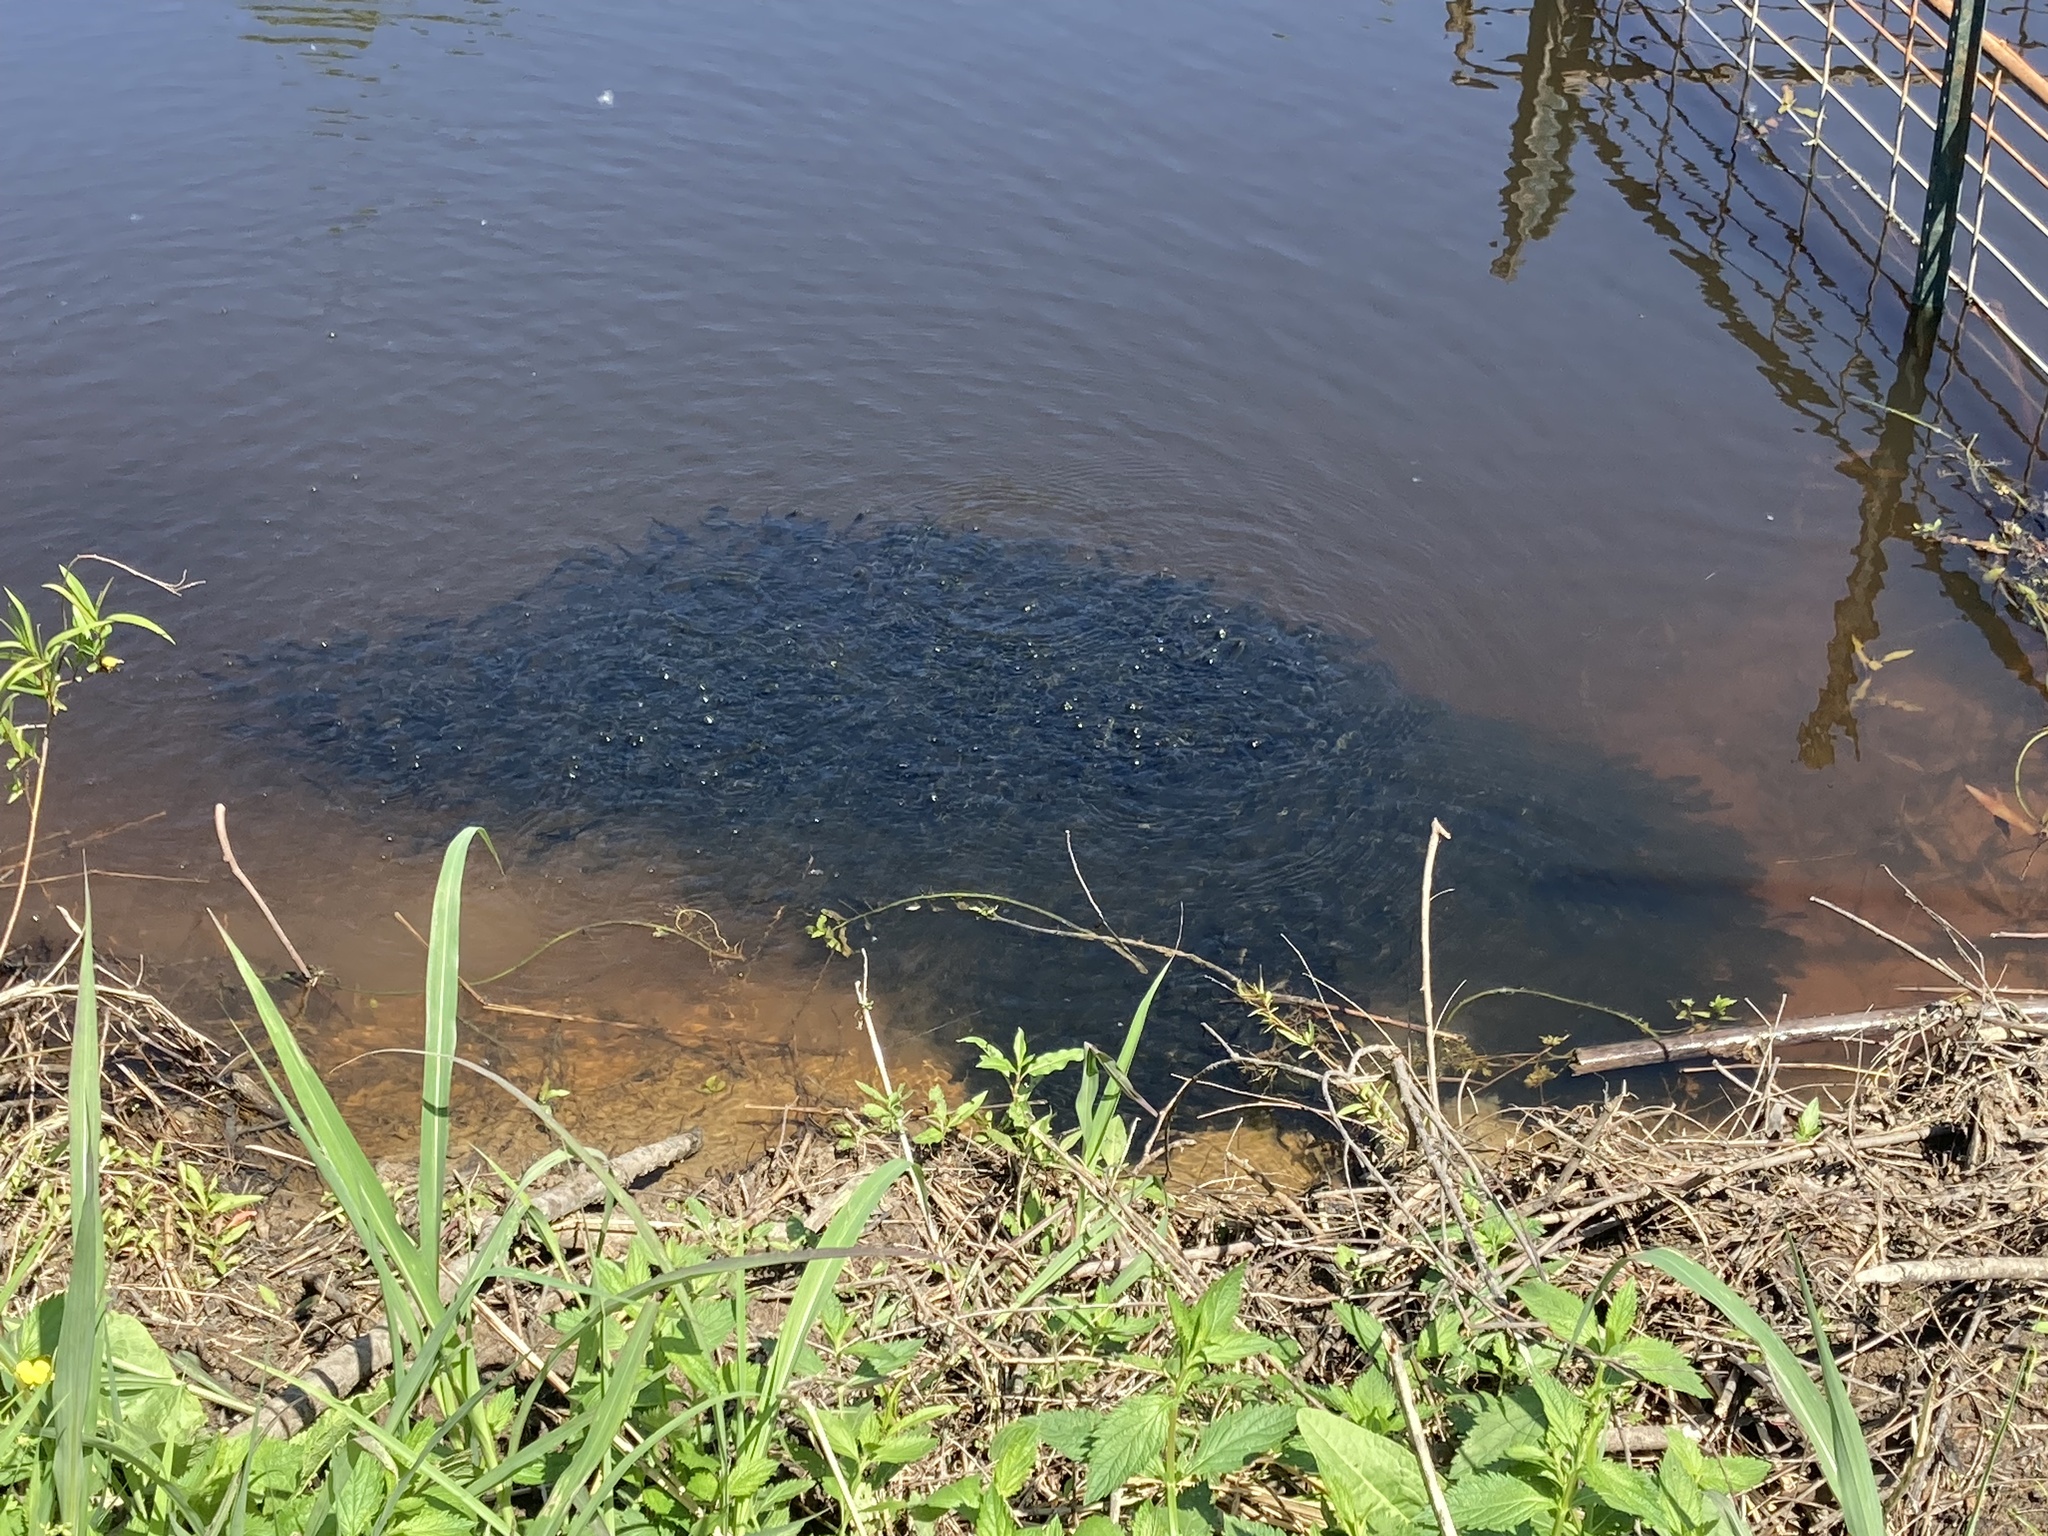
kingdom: Animalia
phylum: Chordata
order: Amiiformes
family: Amiidae
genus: Amia
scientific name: Amia calva
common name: Bowfin
